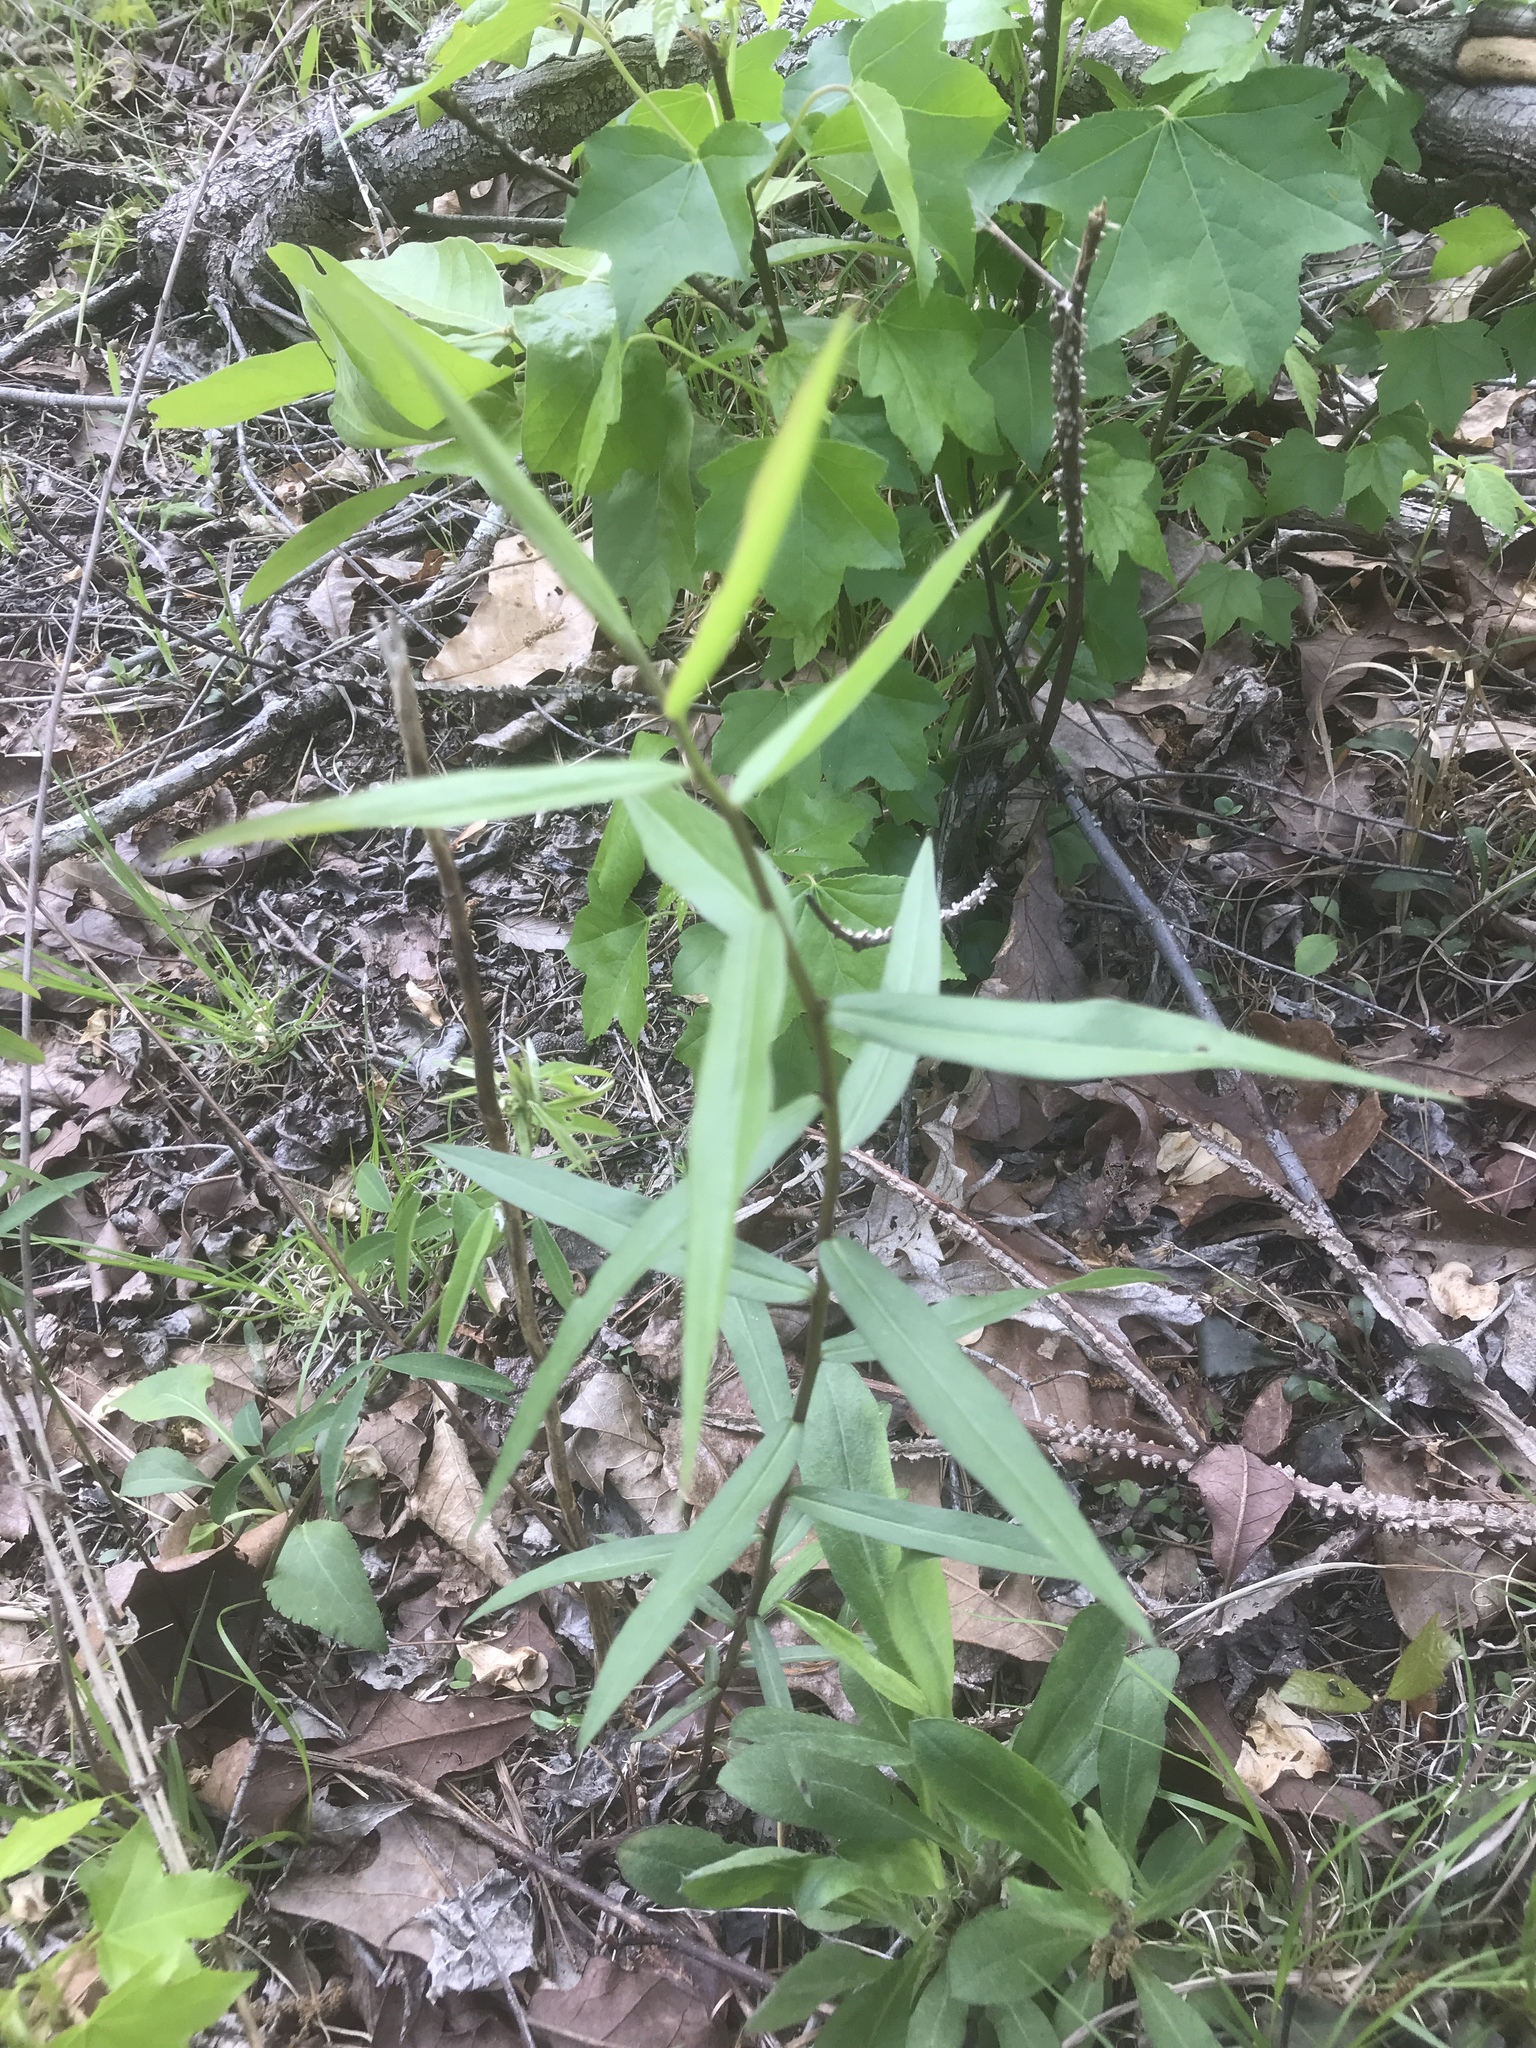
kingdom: Plantae
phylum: Tracheophyta
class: Magnoliopsida
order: Asterales
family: Asteraceae
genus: Solidago
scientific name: Solidago odora
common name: Anise-scented goldenrod
